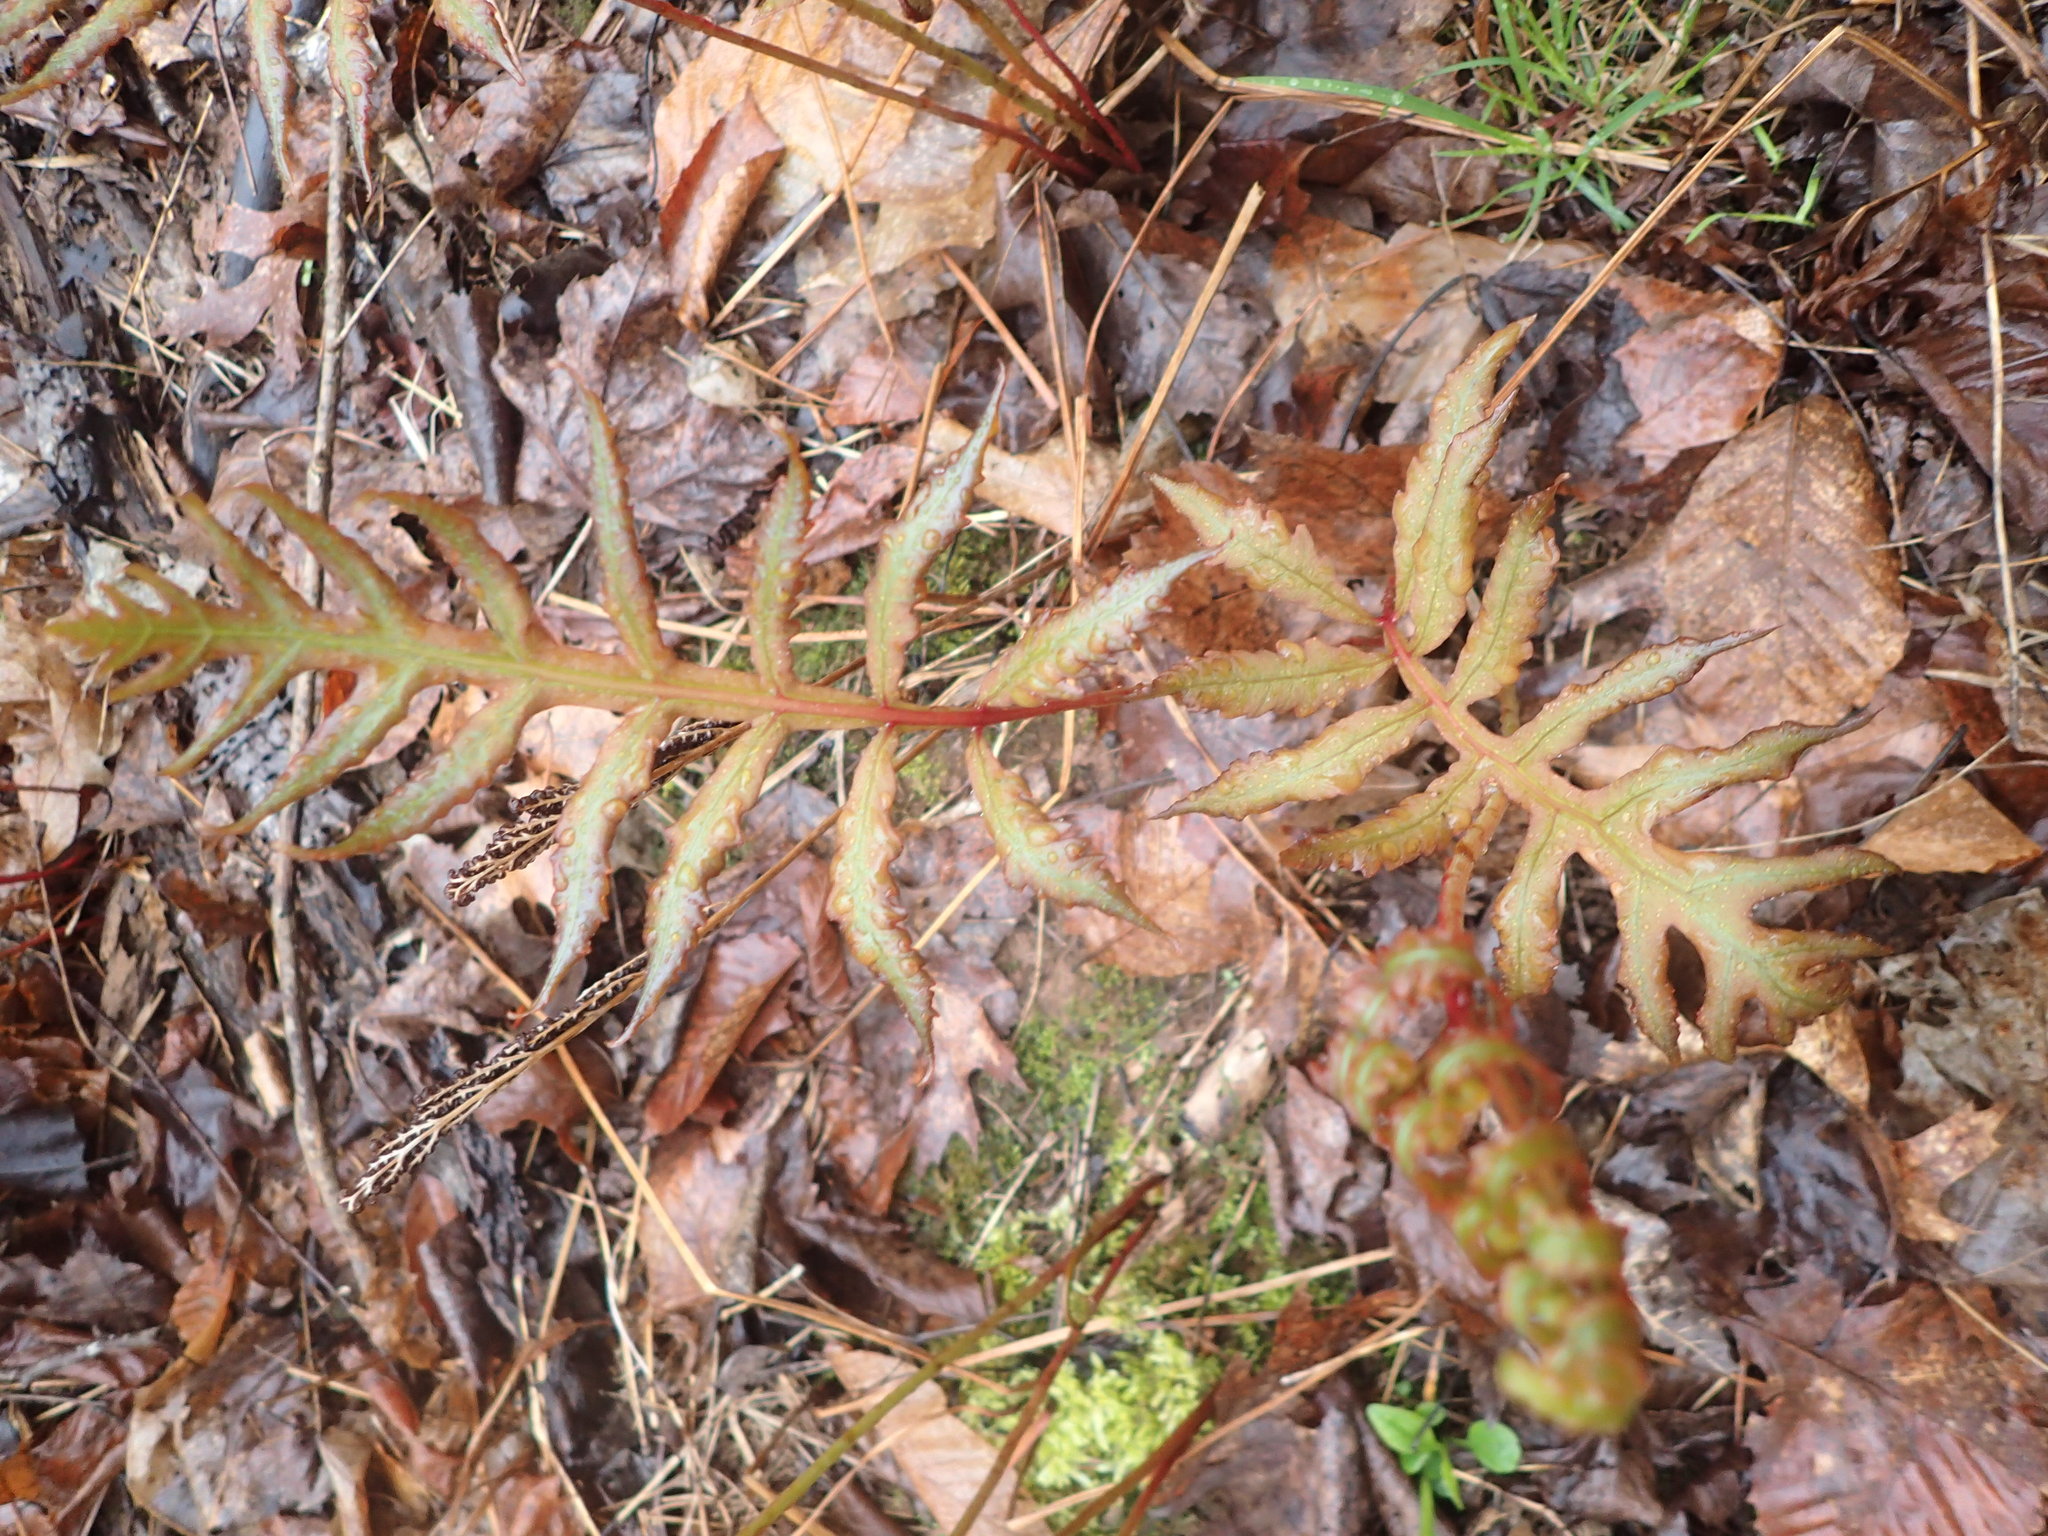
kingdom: Plantae
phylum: Tracheophyta
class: Polypodiopsida
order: Polypodiales
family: Onocleaceae
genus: Onoclea
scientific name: Onoclea sensibilis
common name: Sensitive fern
